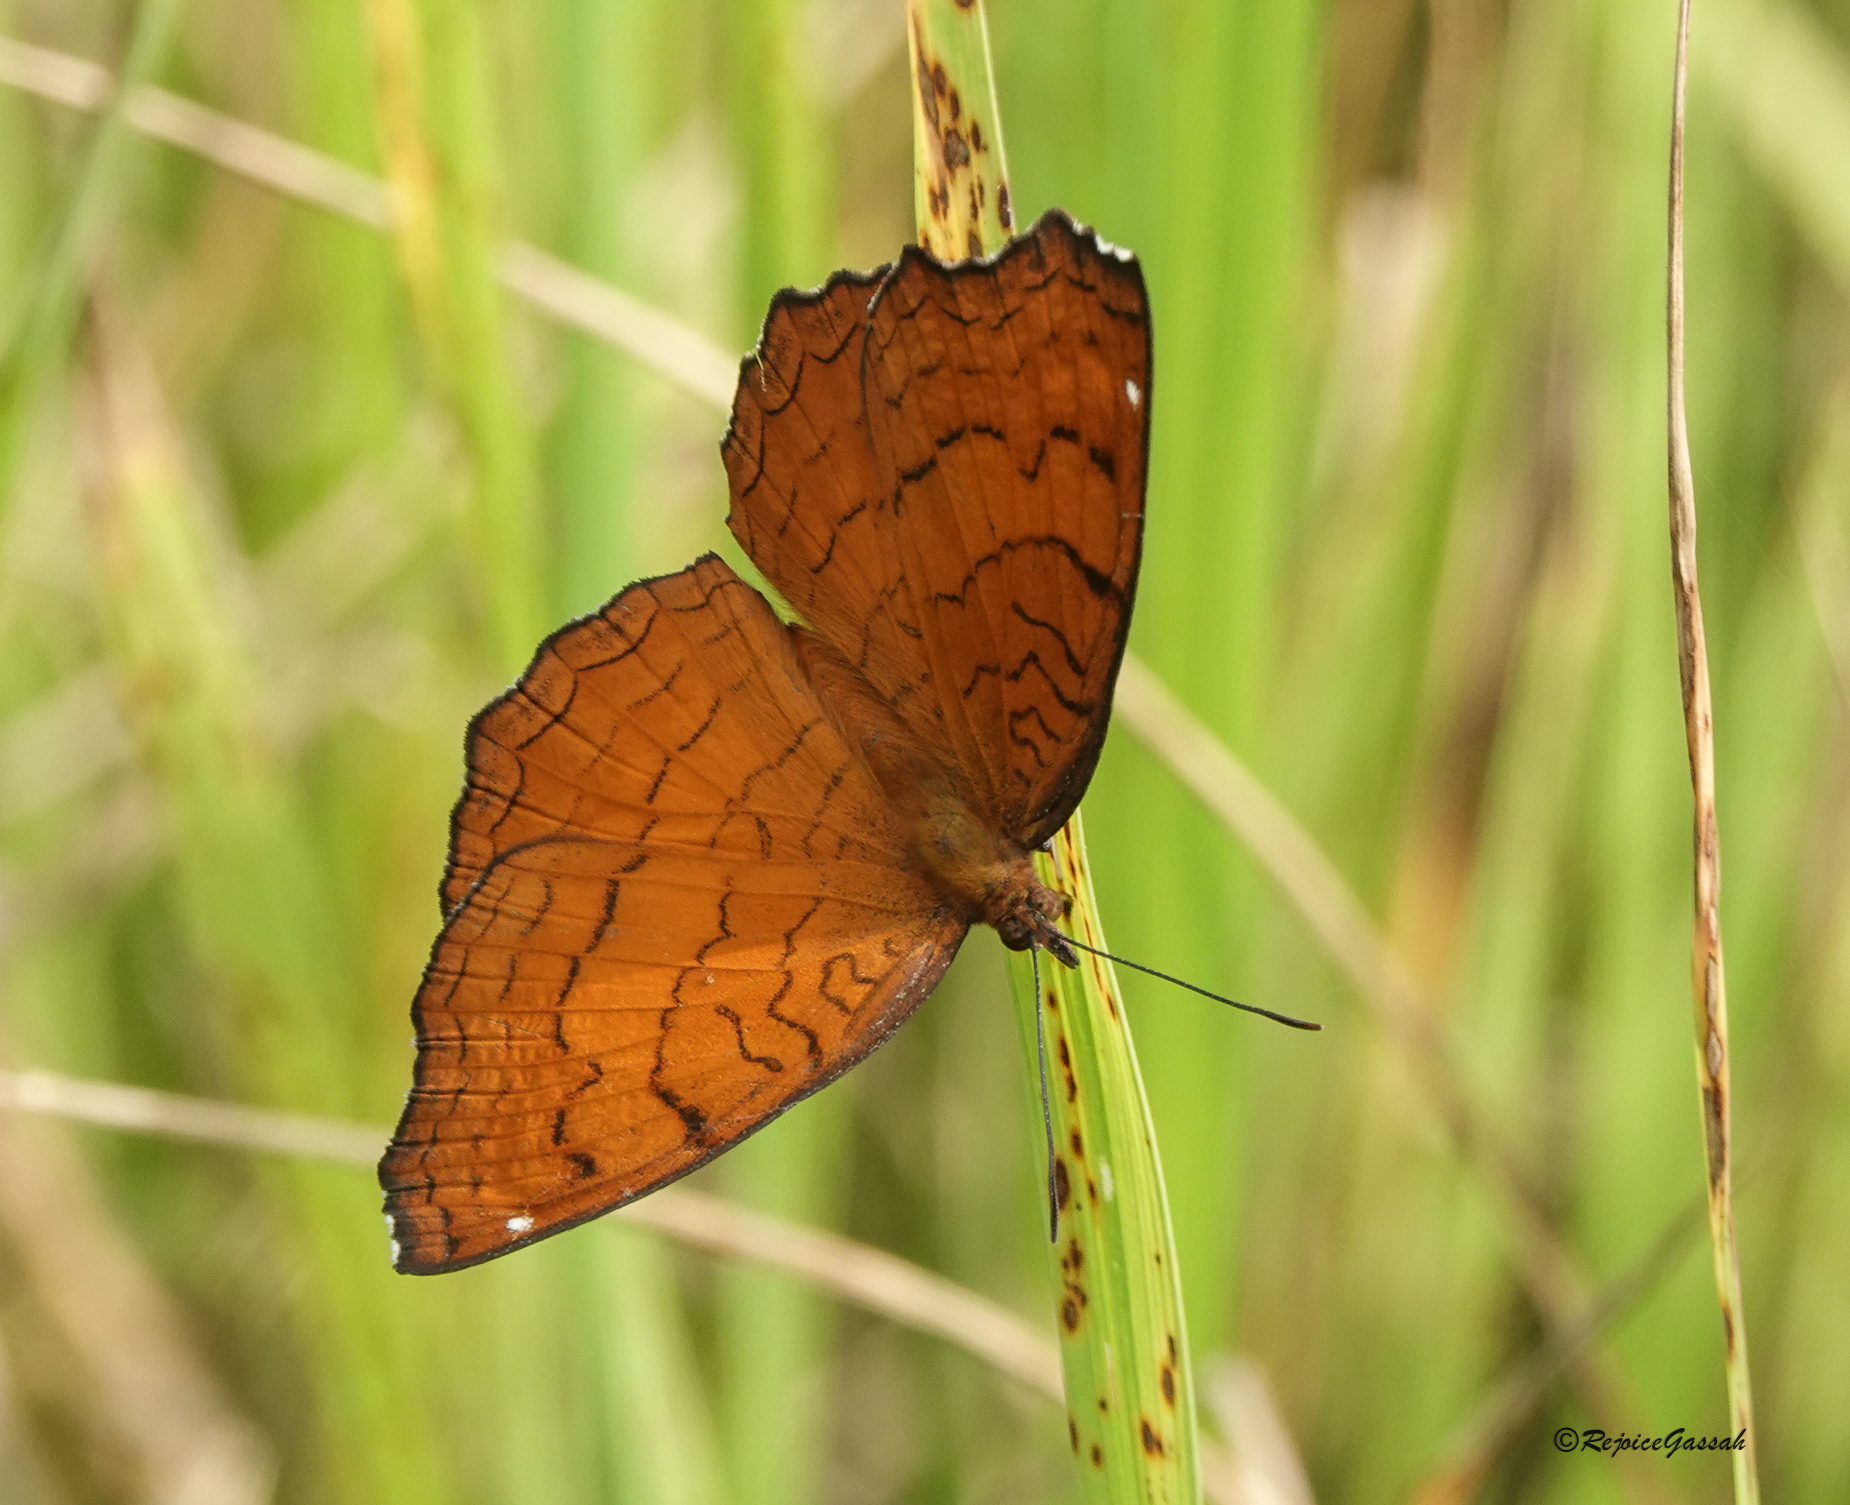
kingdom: Animalia
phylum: Arthropoda
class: Insecta
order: Lepidoptera
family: Nymphalidae
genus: Ariadne
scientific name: Ariadne ariadne
